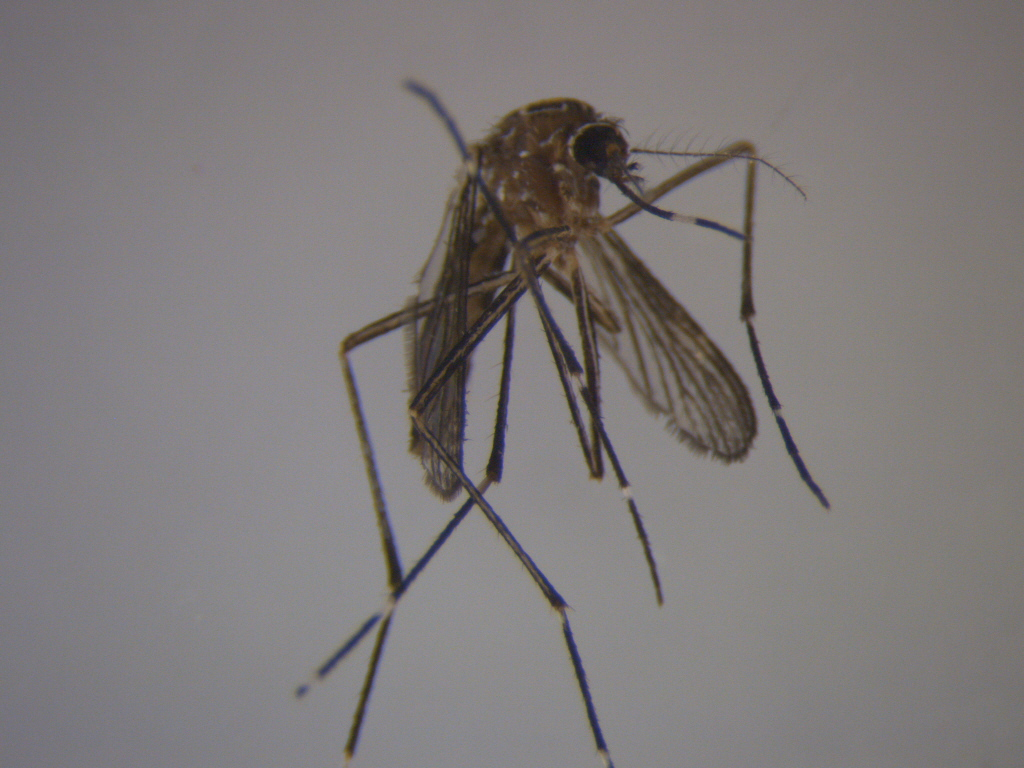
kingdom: Animalia
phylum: Arthropoda
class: Insecta
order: Diptera
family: Culicidae
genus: Aedes
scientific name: Aedes notoscriptus
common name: Australian backyard mosquito
